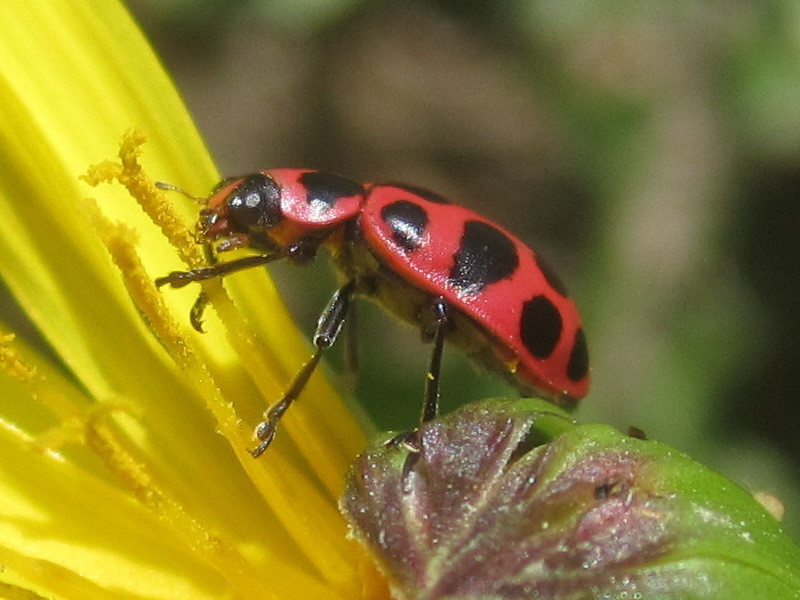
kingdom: Animalia
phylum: Arthropoda
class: Insecta
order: Coleoptera
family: Coccinellidae
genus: Coleomegilla
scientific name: Coleomegilla maculata
